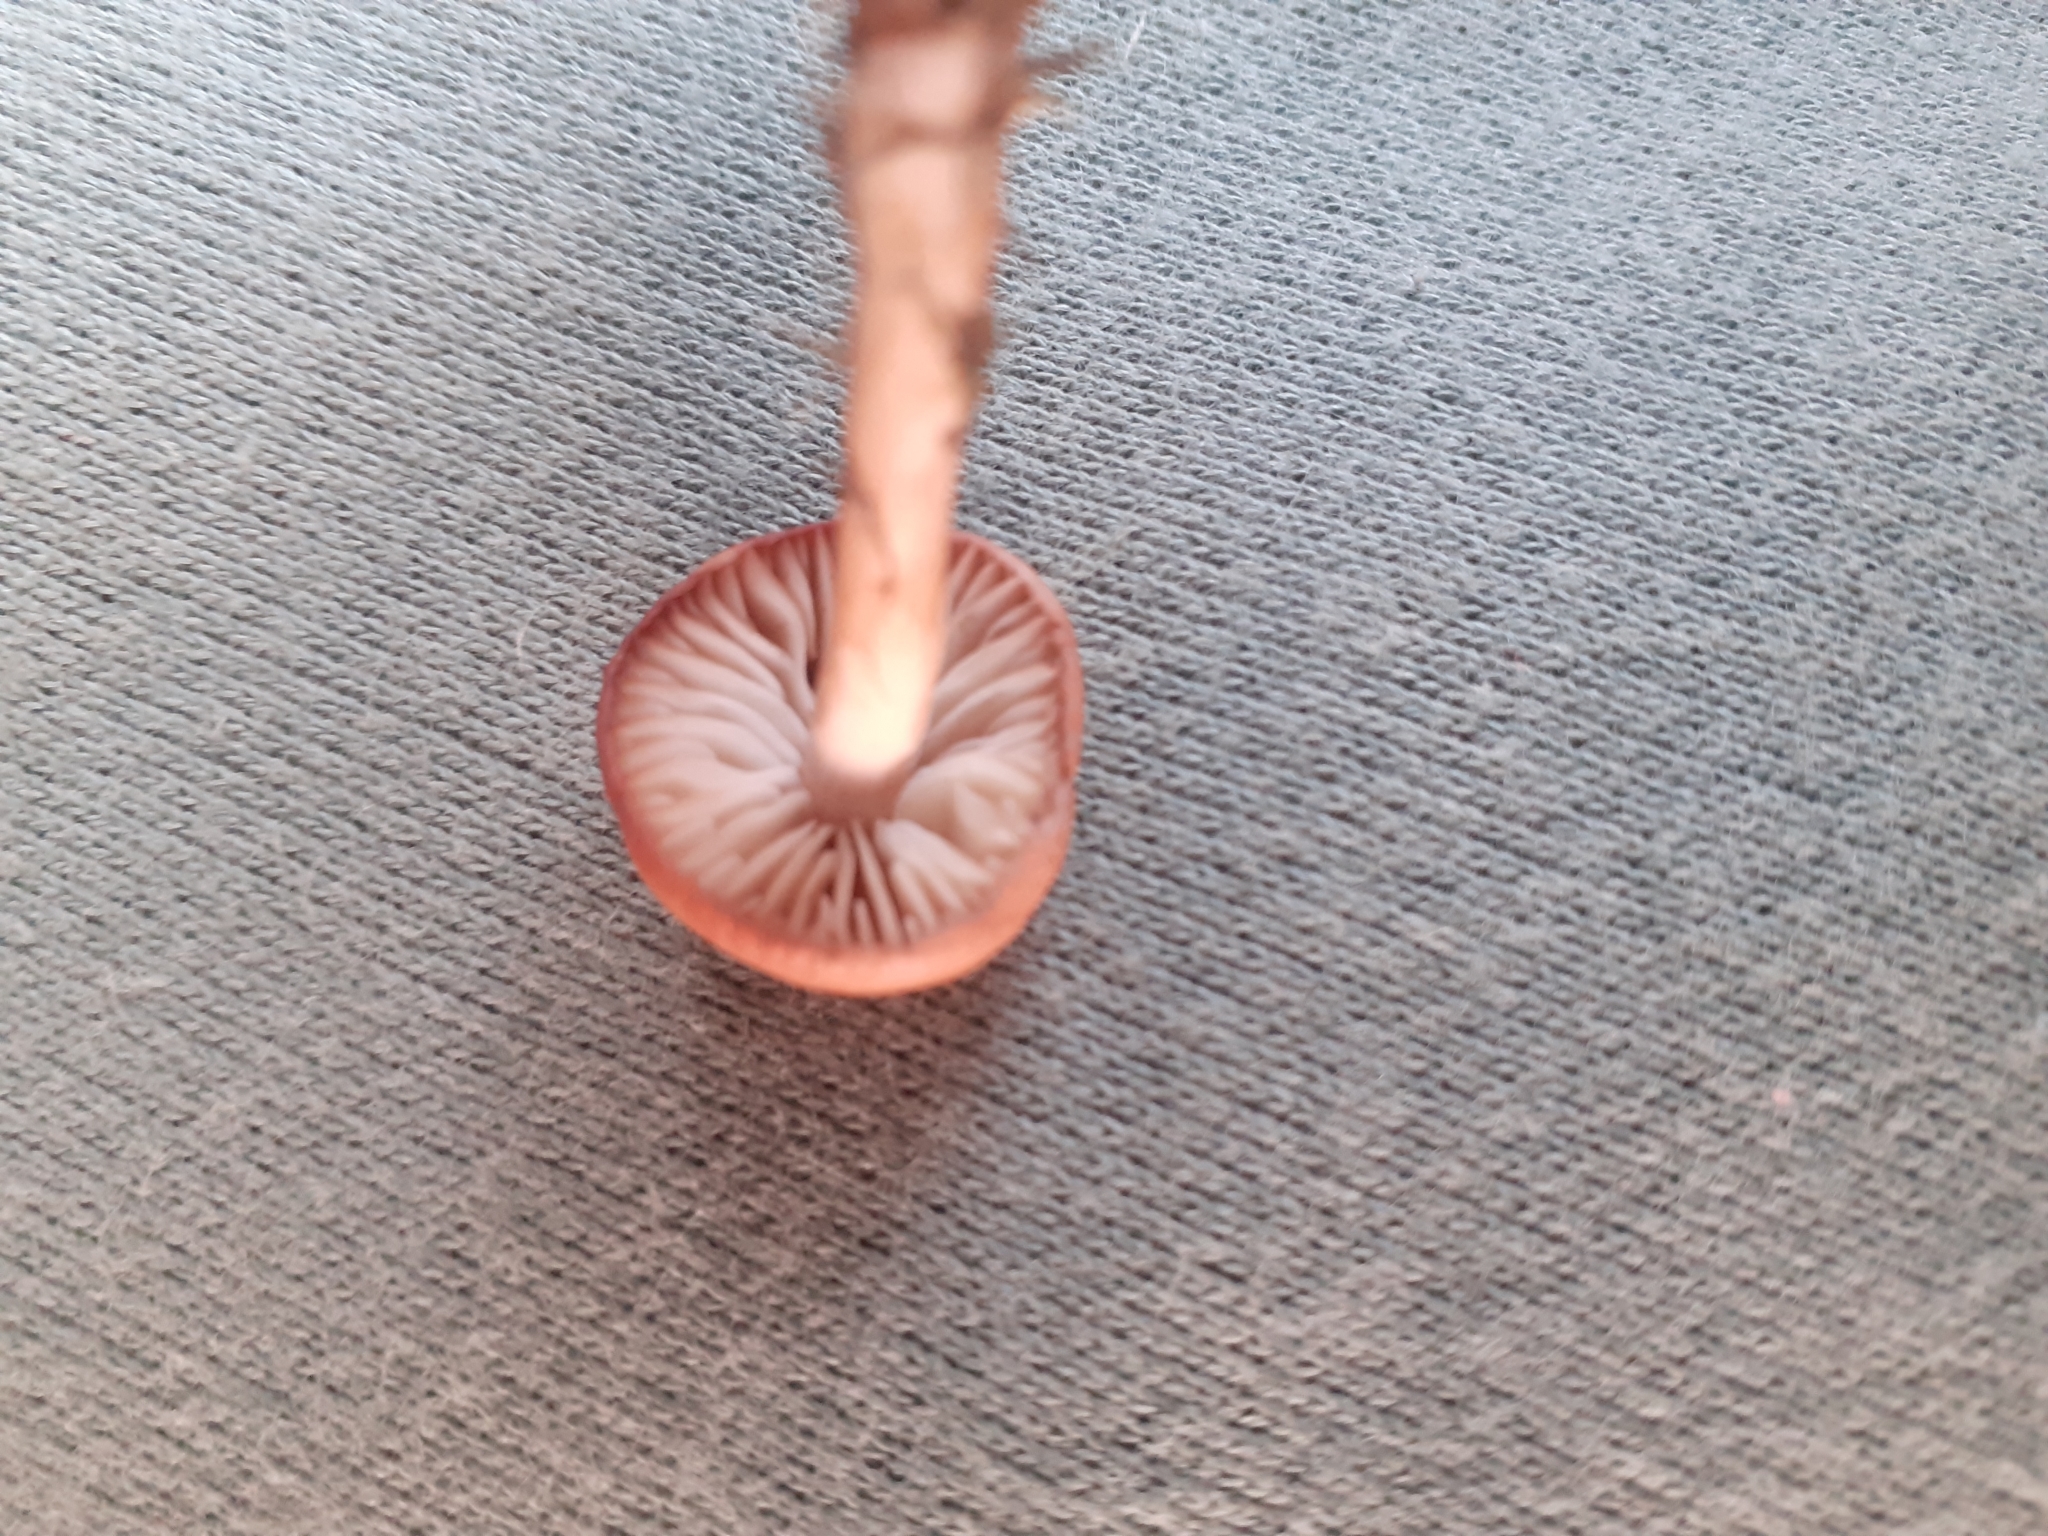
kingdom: Fungi
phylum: Basidiomycota
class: Agaricomycetes
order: Agaricales
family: Marasmiaceae
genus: Marasmius
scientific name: Marasmius oreades
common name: Fairy ring champignon
